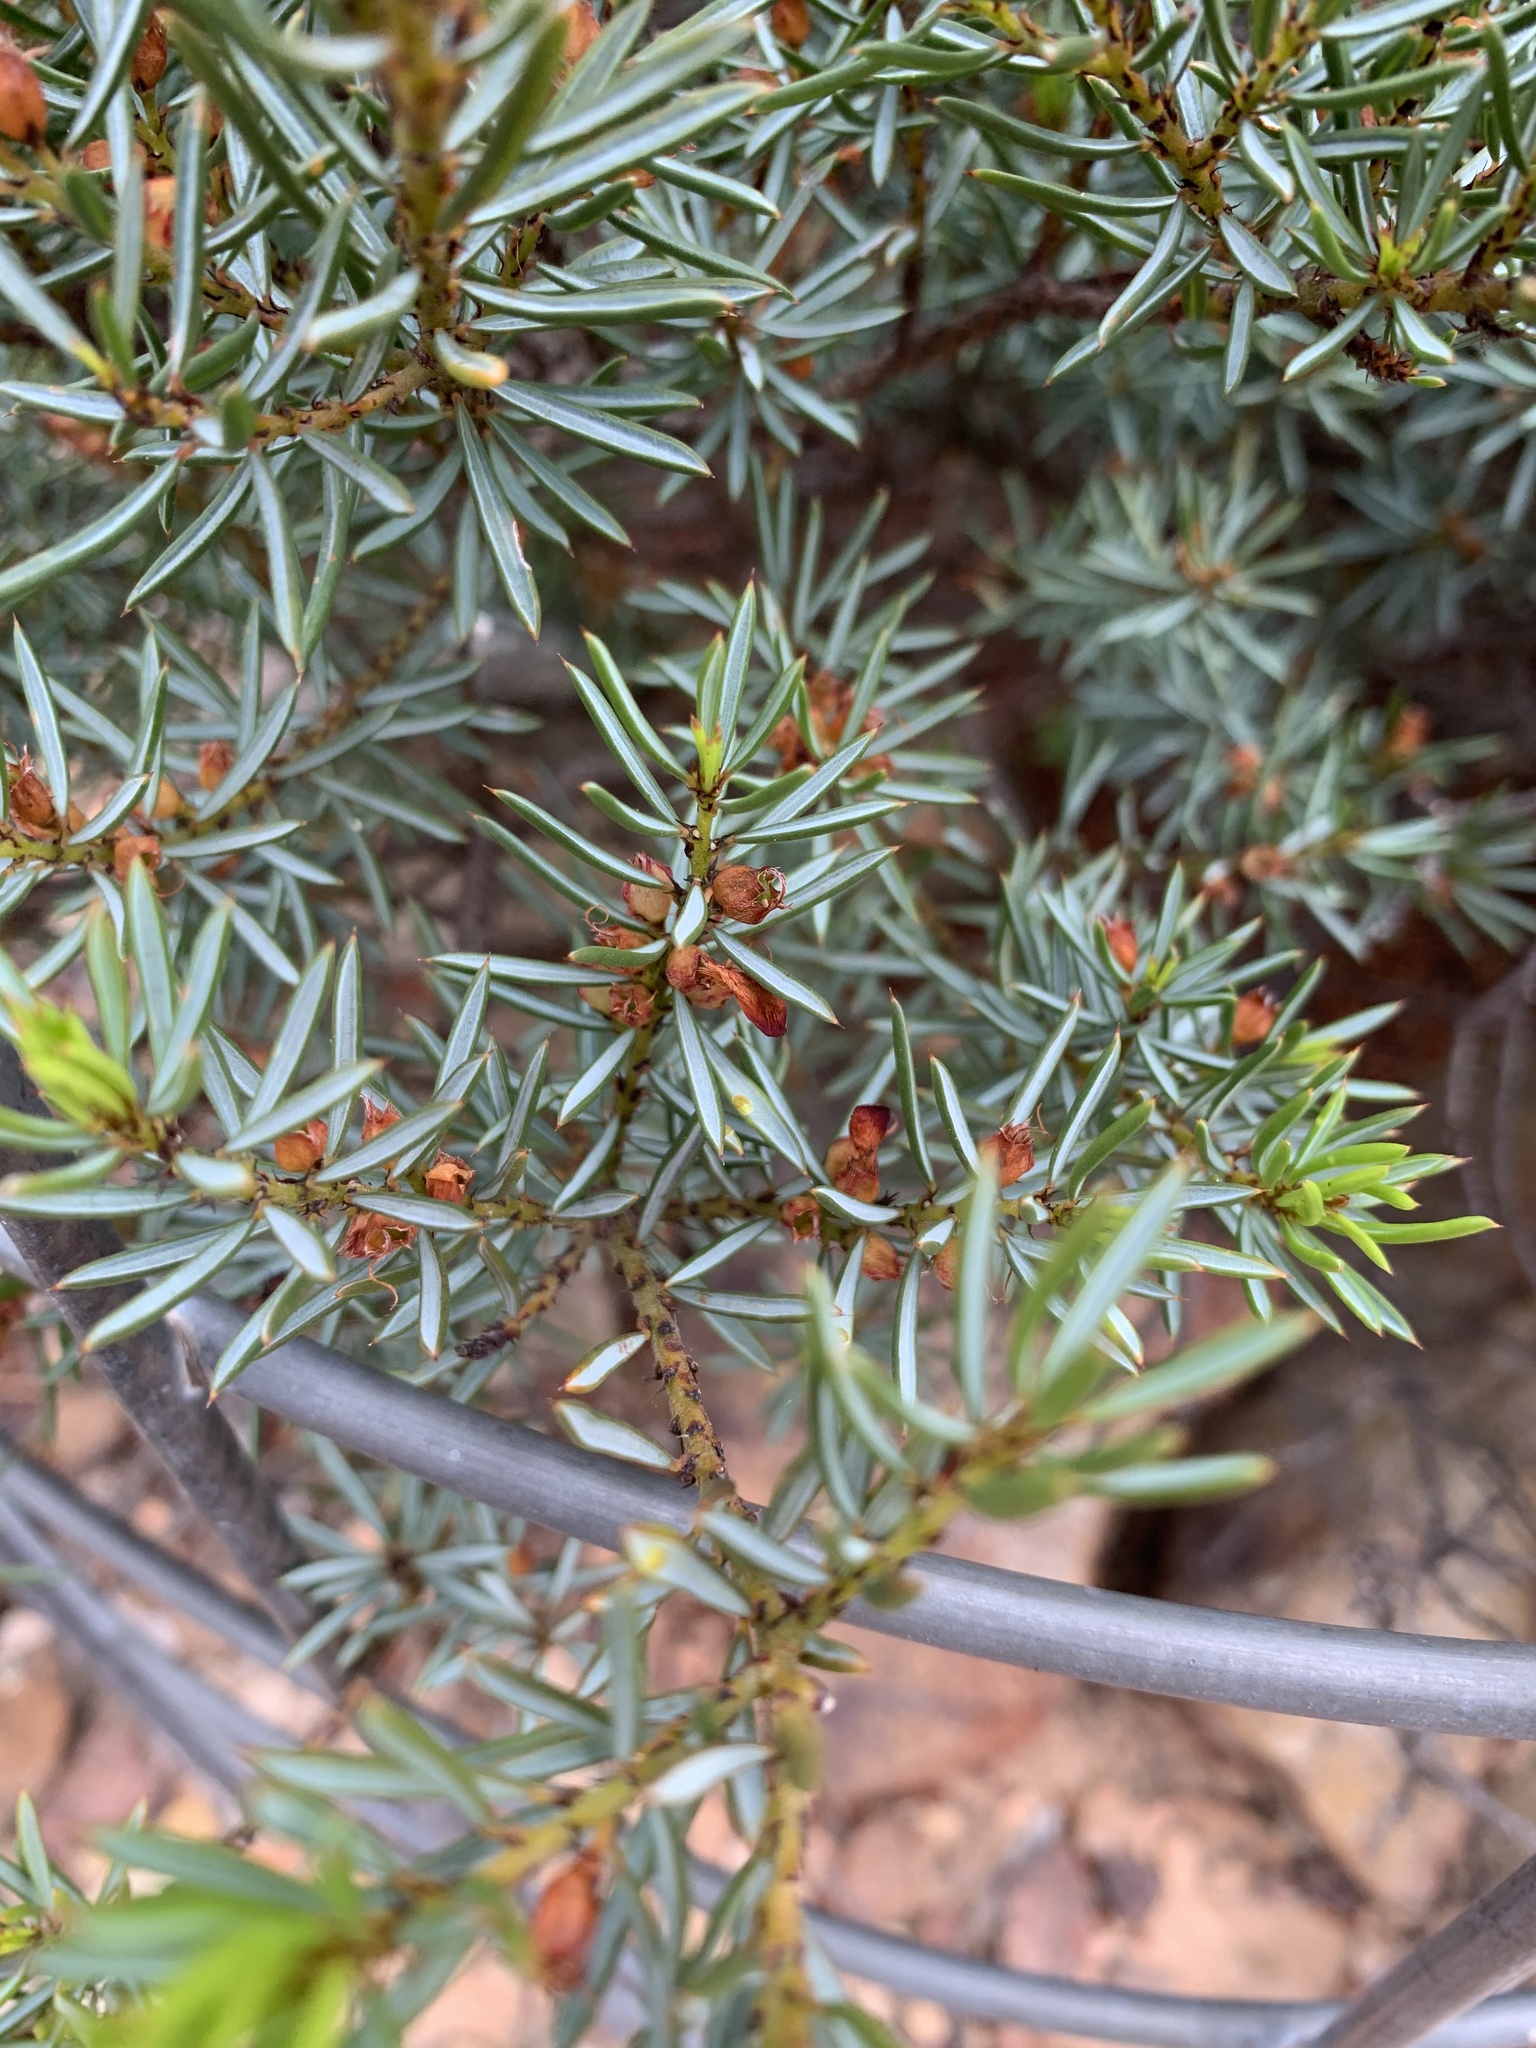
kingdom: Plantae
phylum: Tracheophyta
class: Magnoliopsida
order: Fabales
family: Fabaceae
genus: Pultenaea
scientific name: Pultenaea praecipua
